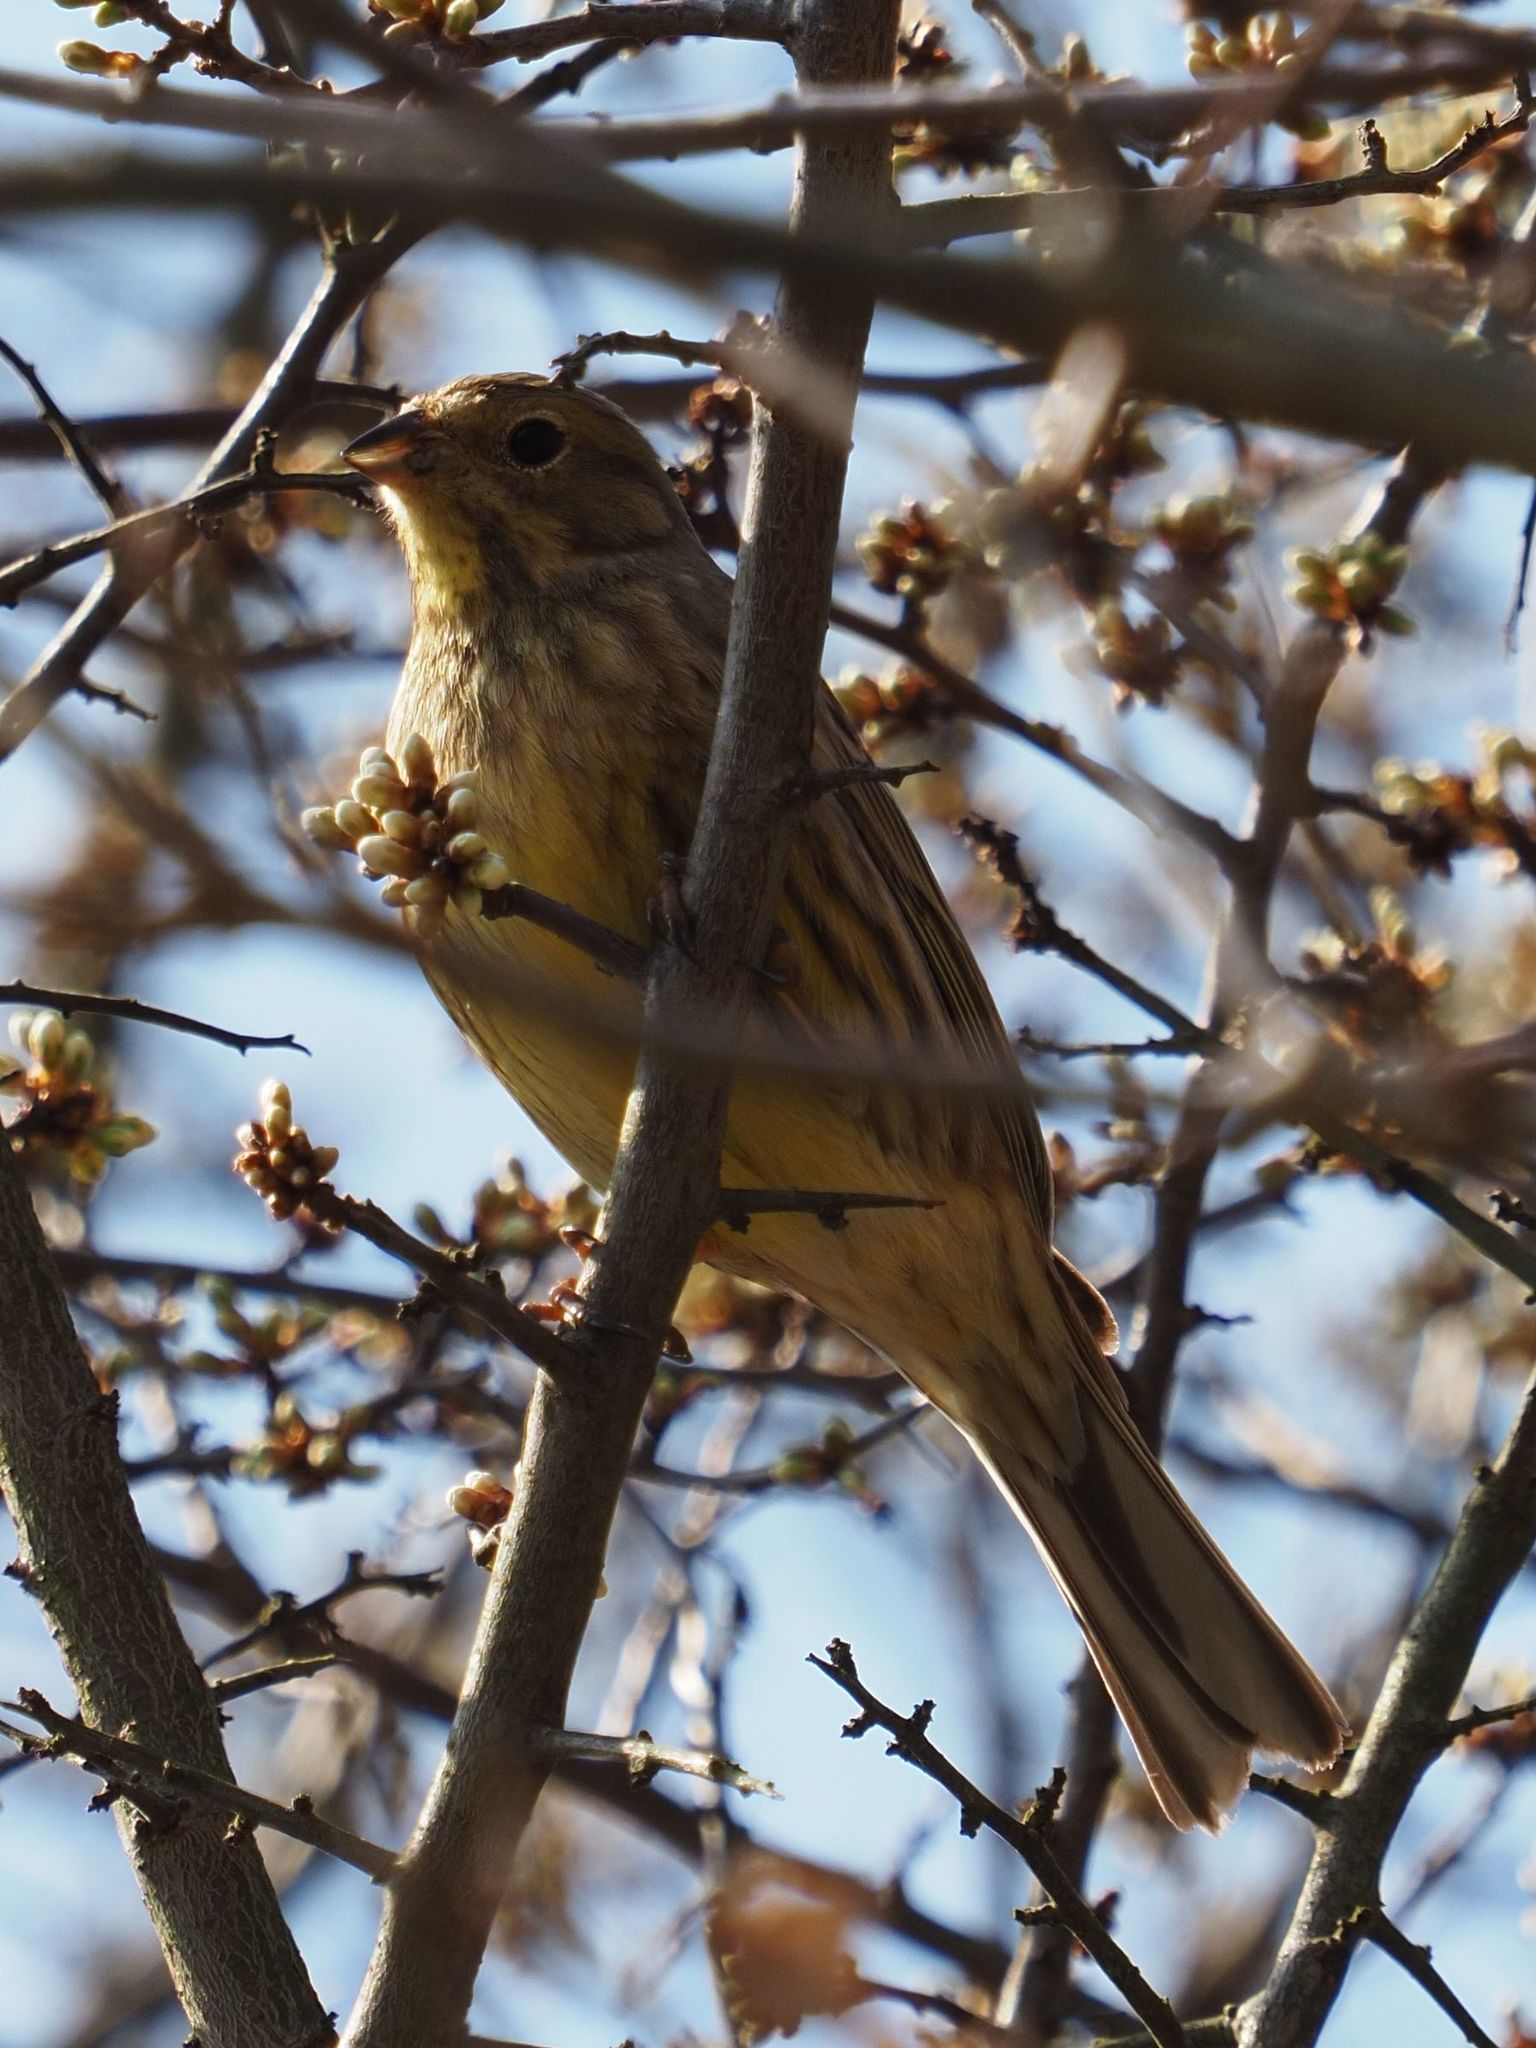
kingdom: Animalia
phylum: Chordata
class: Aves
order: Passeriformes
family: Emberizidae
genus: Emberiza
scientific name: Emberiza citrinella
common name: Yellowhammer
